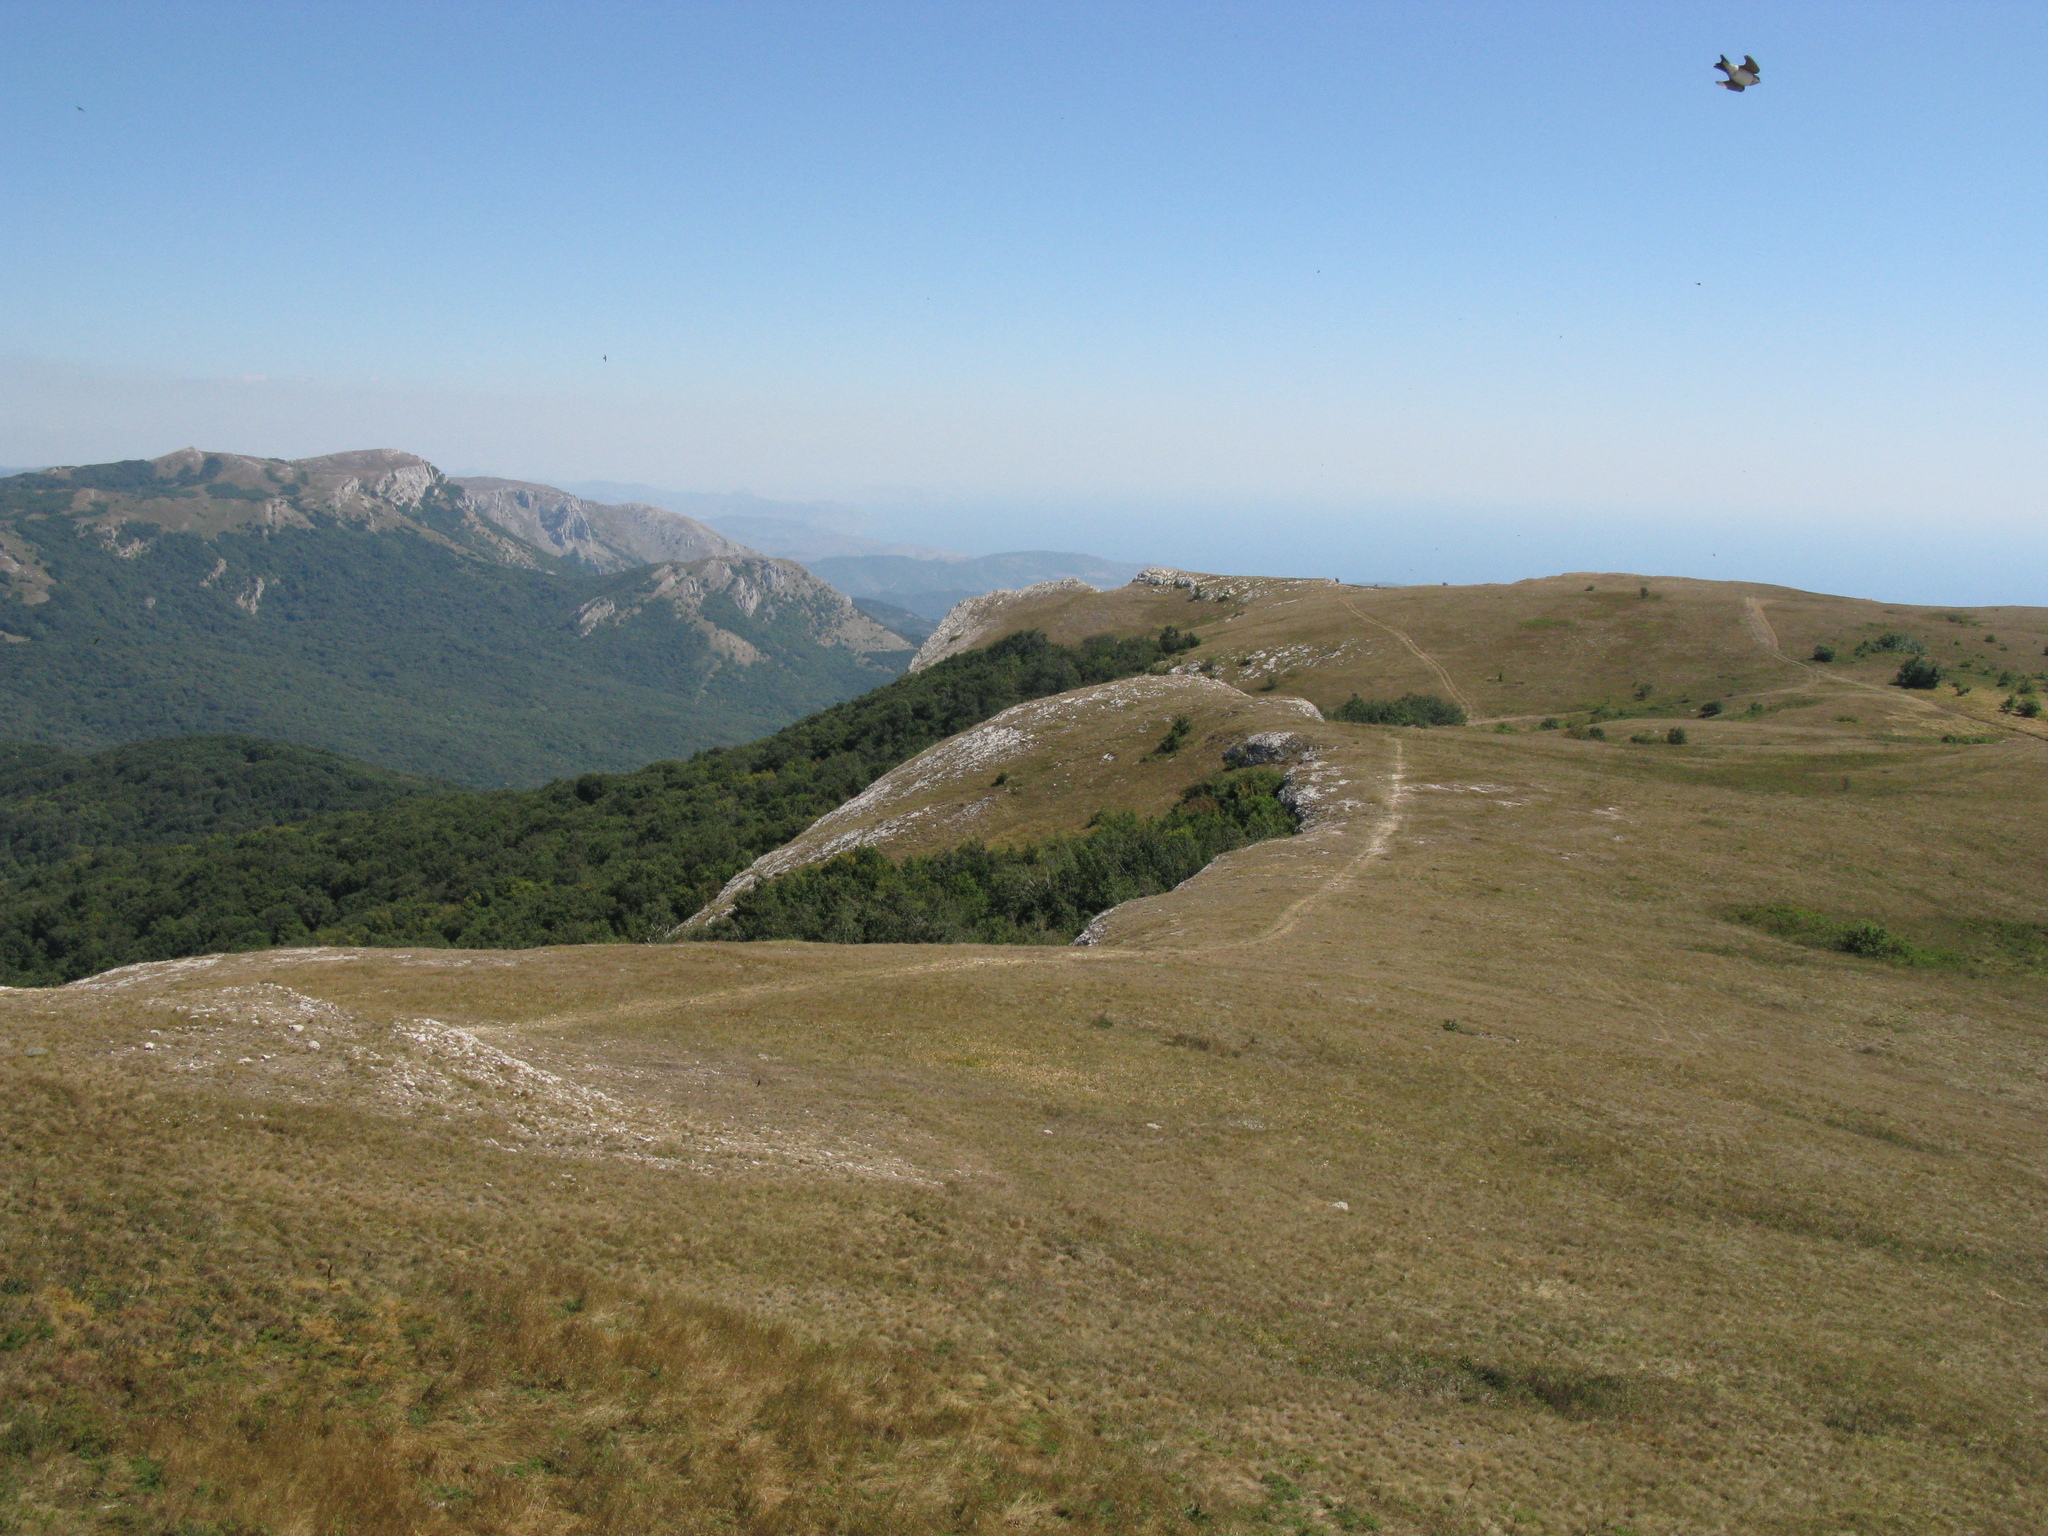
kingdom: Animalia
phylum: Chordata
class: Aves
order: Passeriformes
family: Hirundinidae
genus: Riparia
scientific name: Riparia riparia
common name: Sand martin
